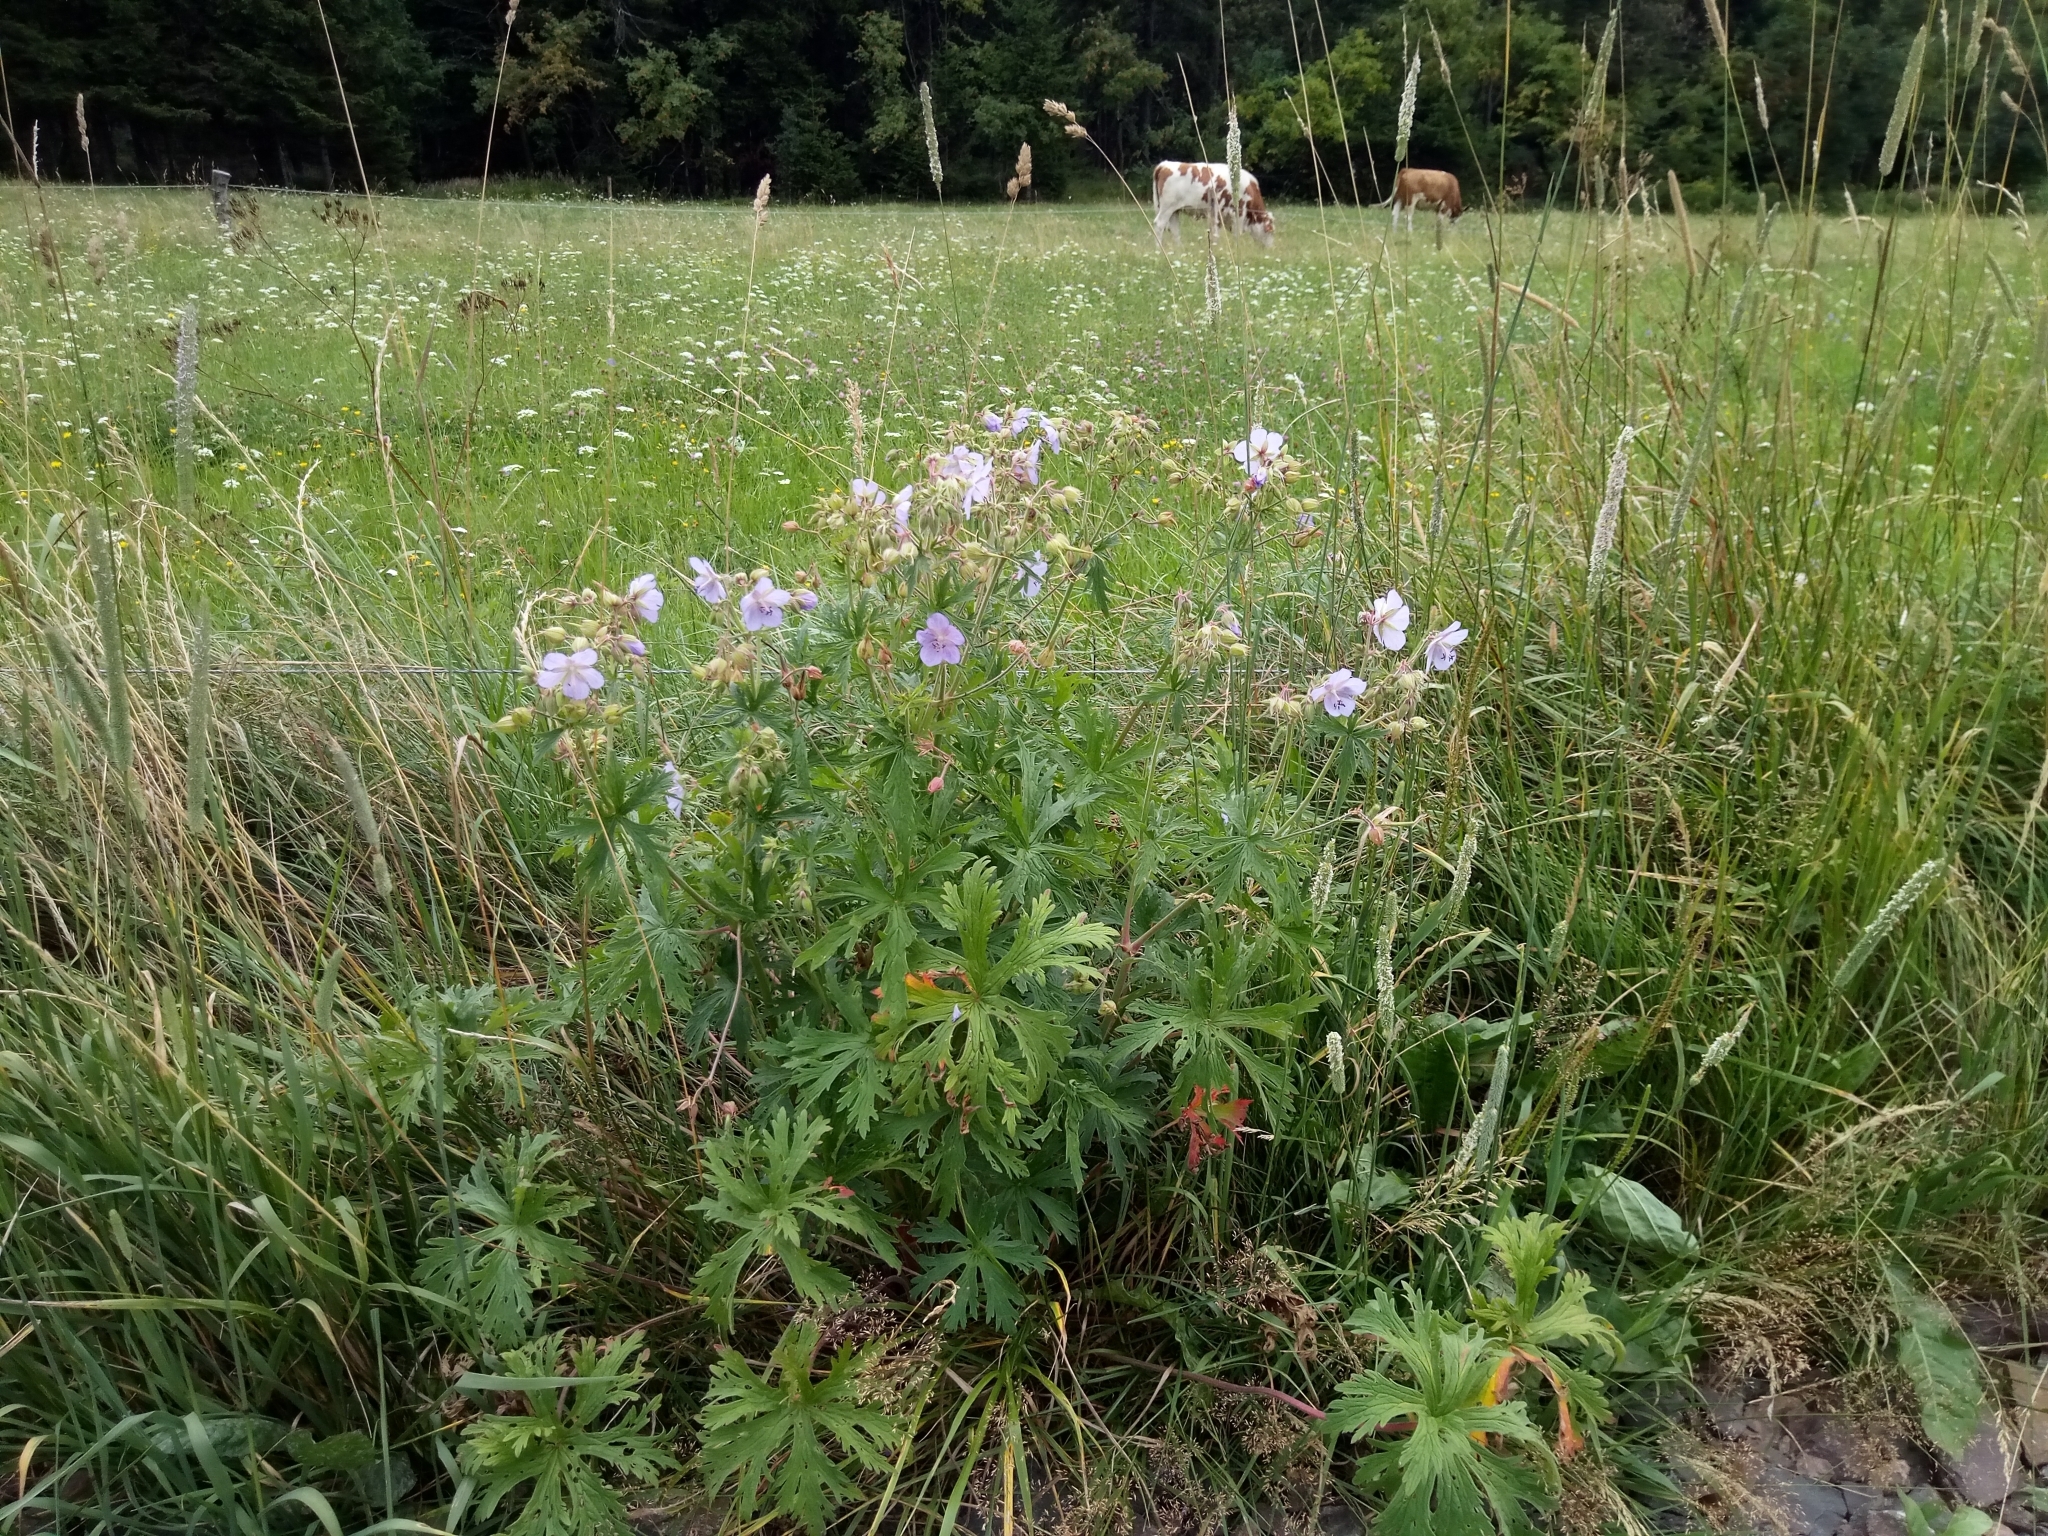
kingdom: Plantae
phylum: Tracheophyta
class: Magnoliopsida
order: Geraniales
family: Geraniaceae
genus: Geranium
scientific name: Geranium pratense
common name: Meadow crane's-bill
